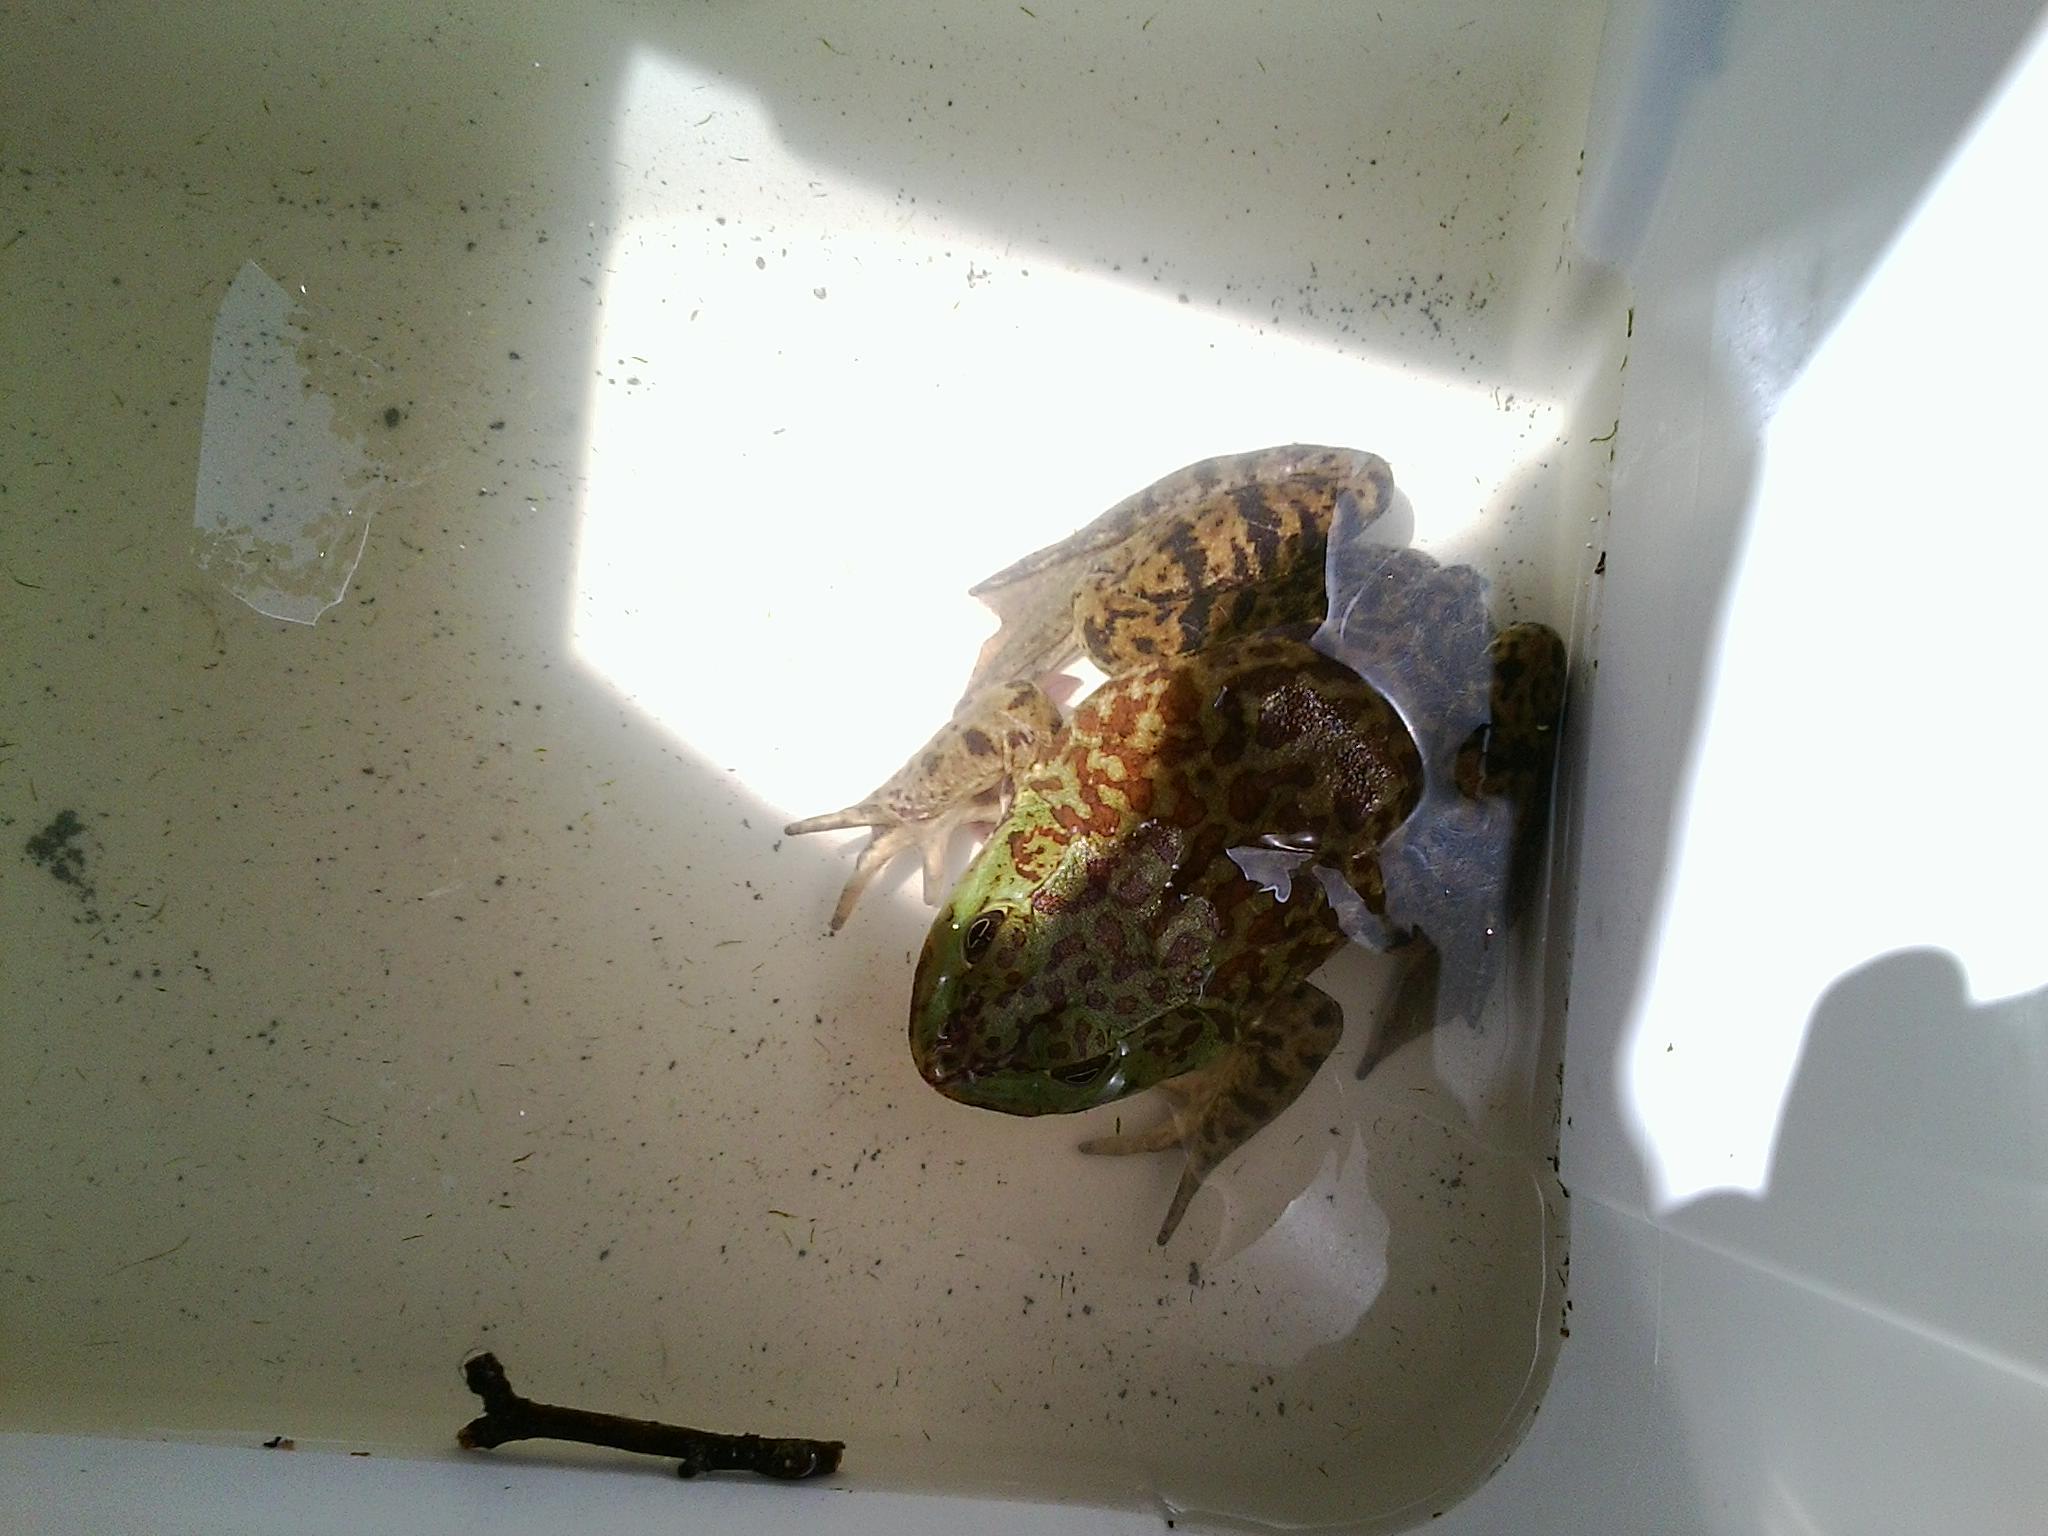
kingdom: Animalia
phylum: Chordata
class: Amphibia
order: Anura
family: Ranidae
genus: Lithobates
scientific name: Lithobates catesbeianus
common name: American bullfrog
